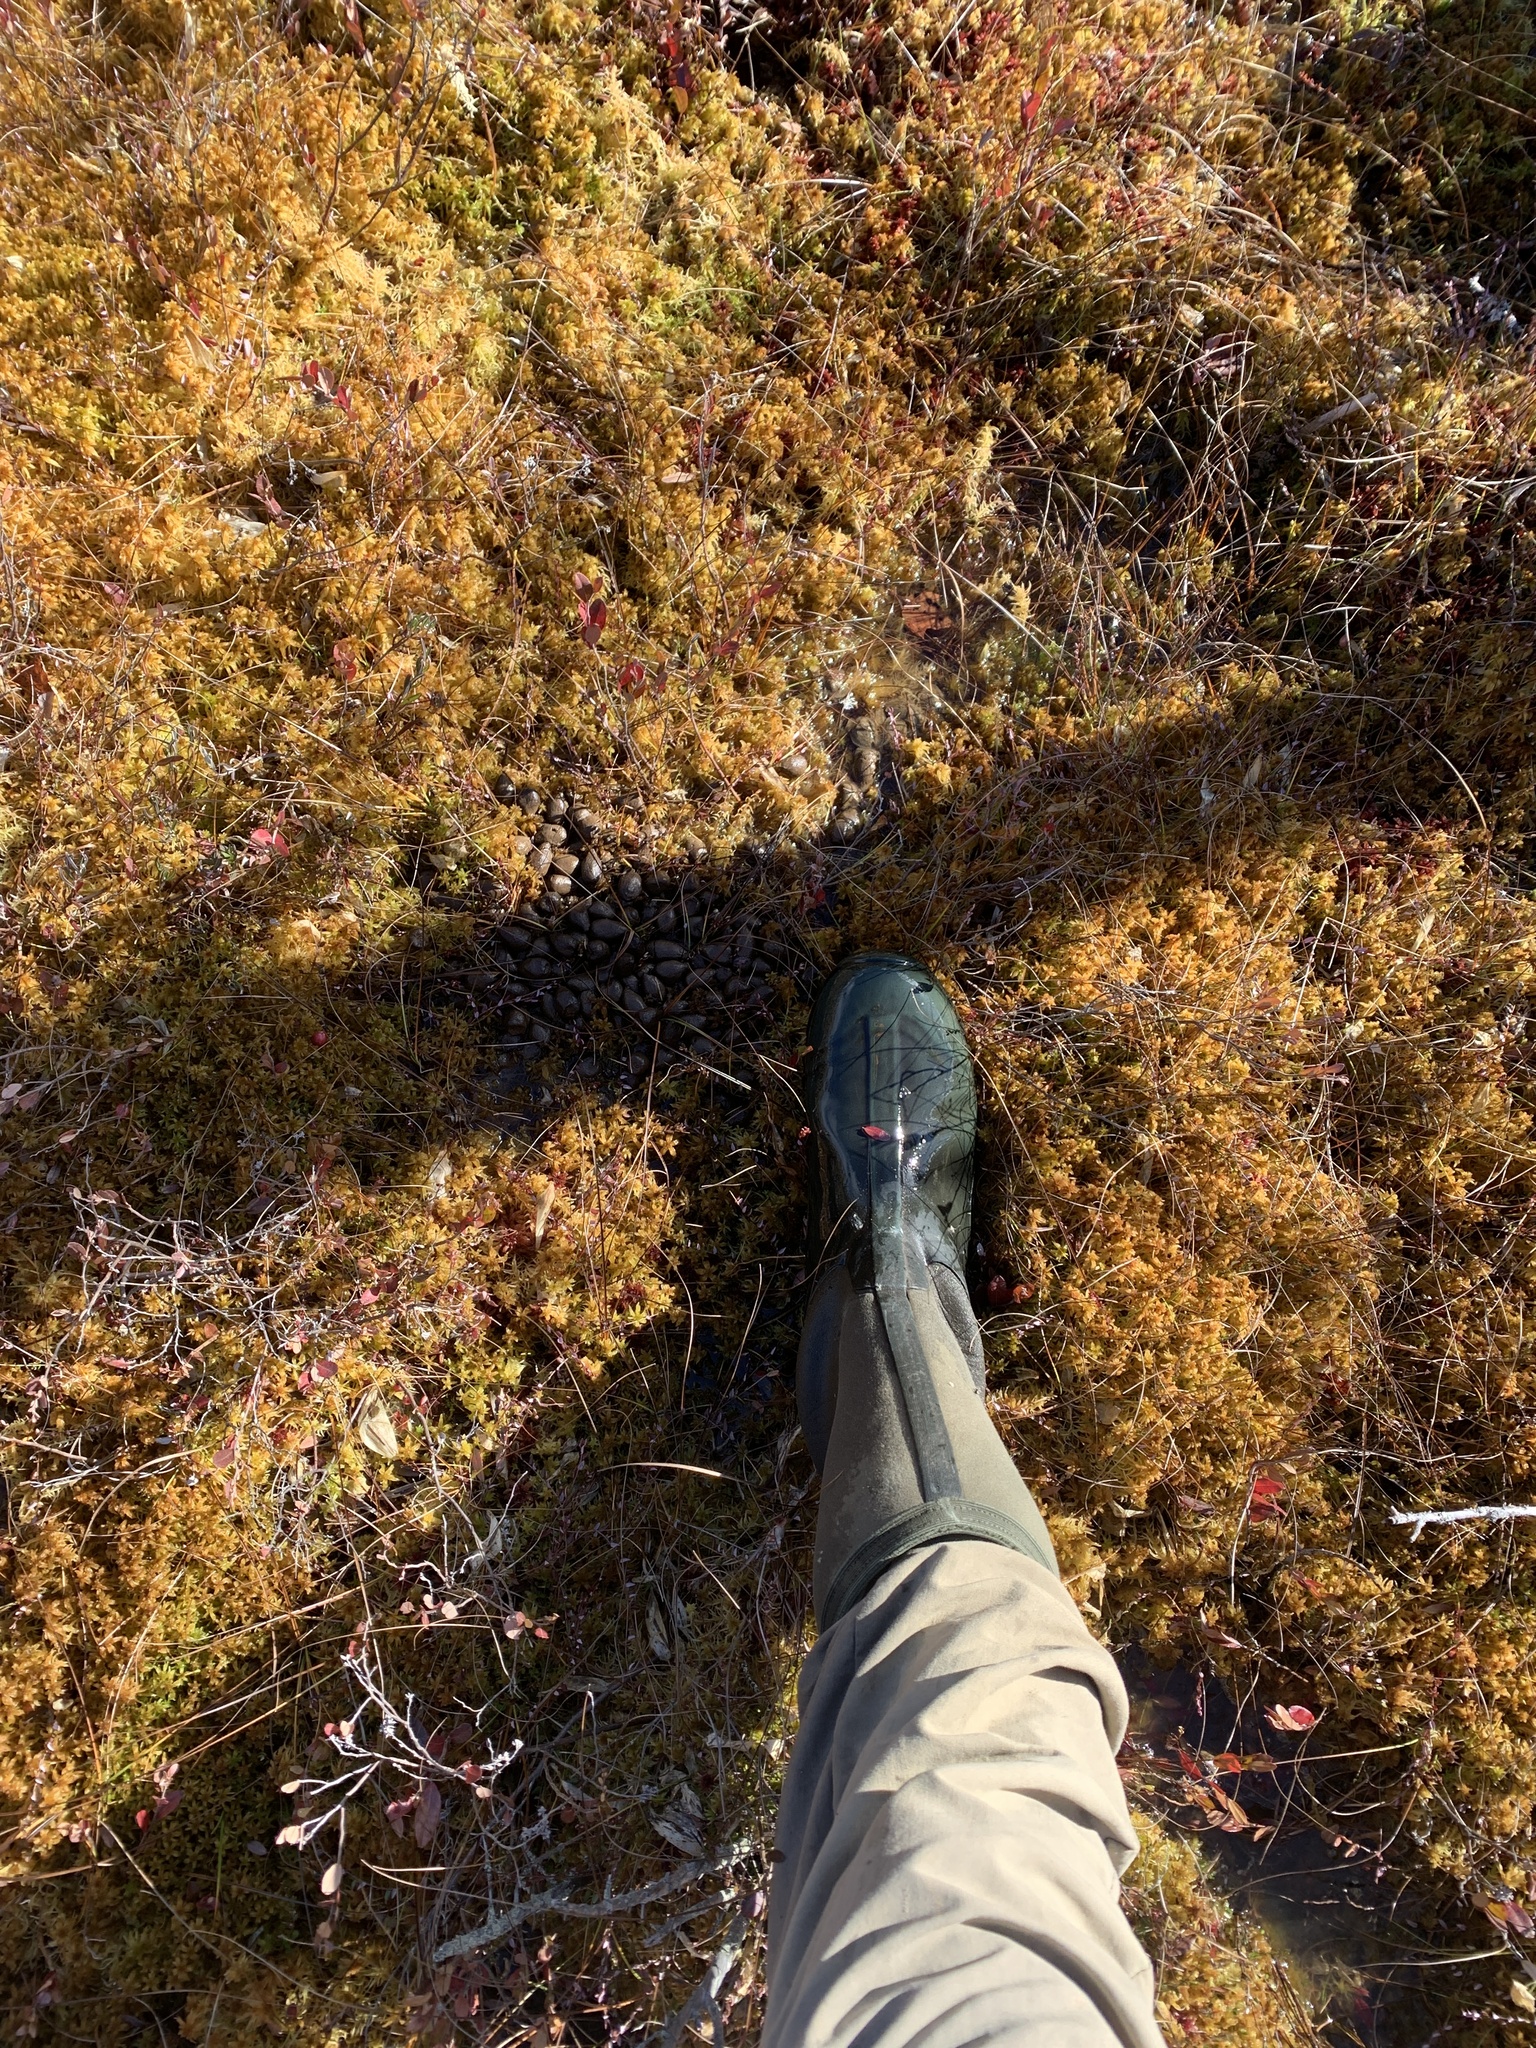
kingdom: Animalia
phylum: Chordata
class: Mammalia
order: Artiodactyla
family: Cervidae
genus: Alces
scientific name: Alces alces
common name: Moose
